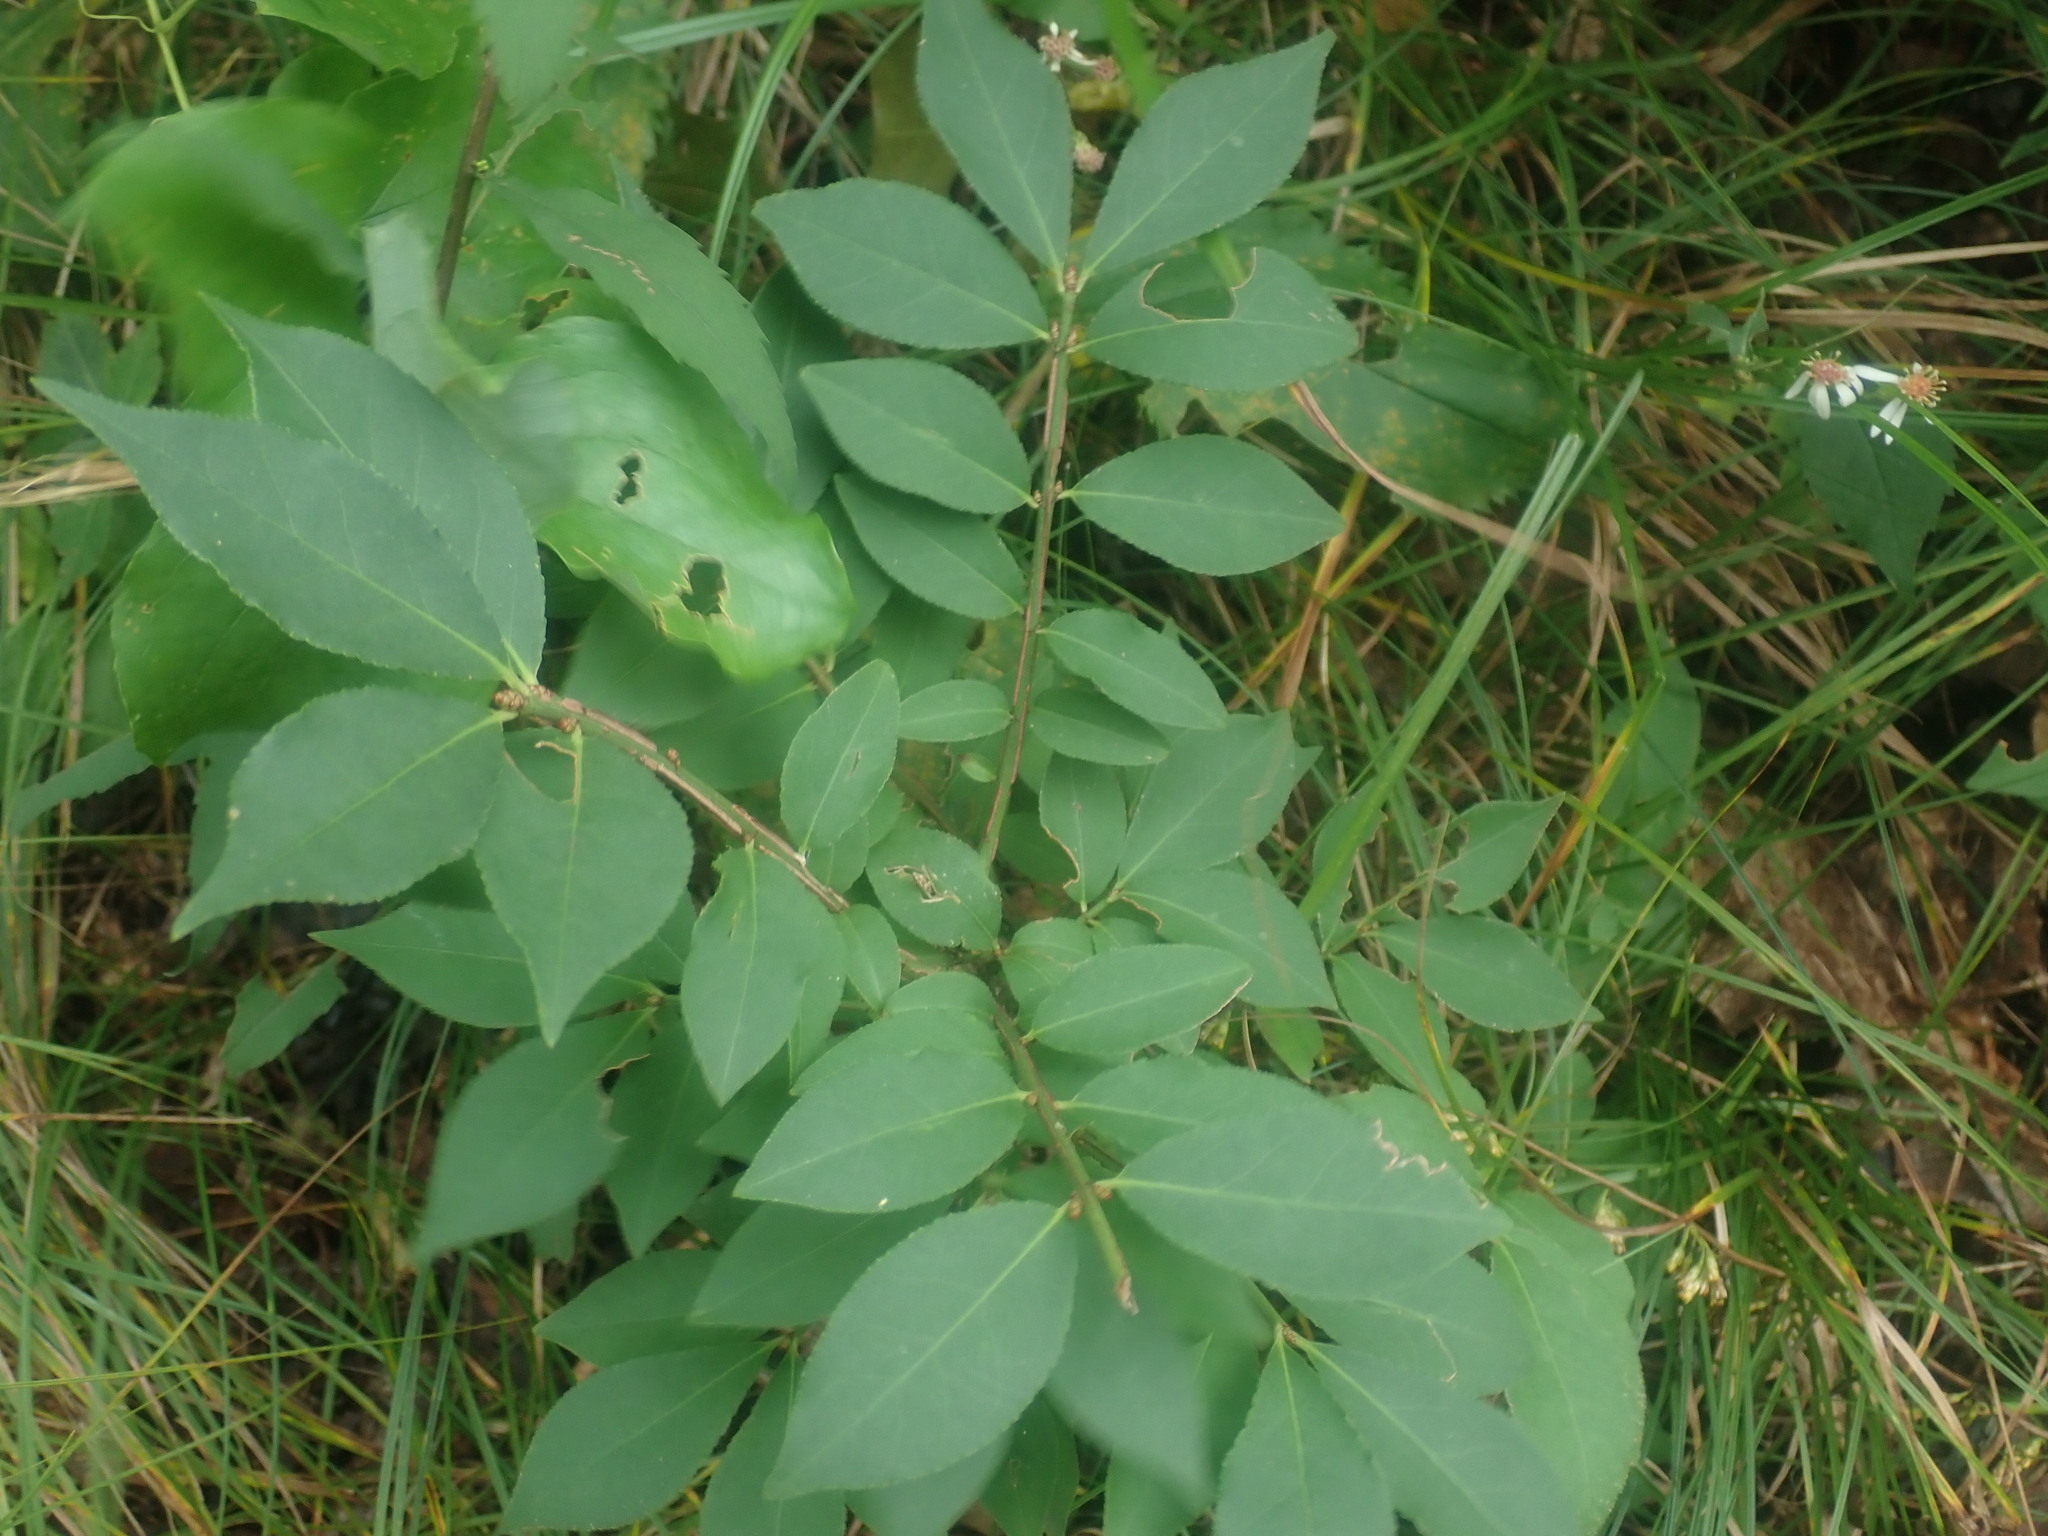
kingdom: Plantae
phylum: Tracheophyta
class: Magnoliopsida
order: Celastrales
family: Celastraceae
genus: Euonymus
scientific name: Euonymus alatus
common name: Winged euonymus
